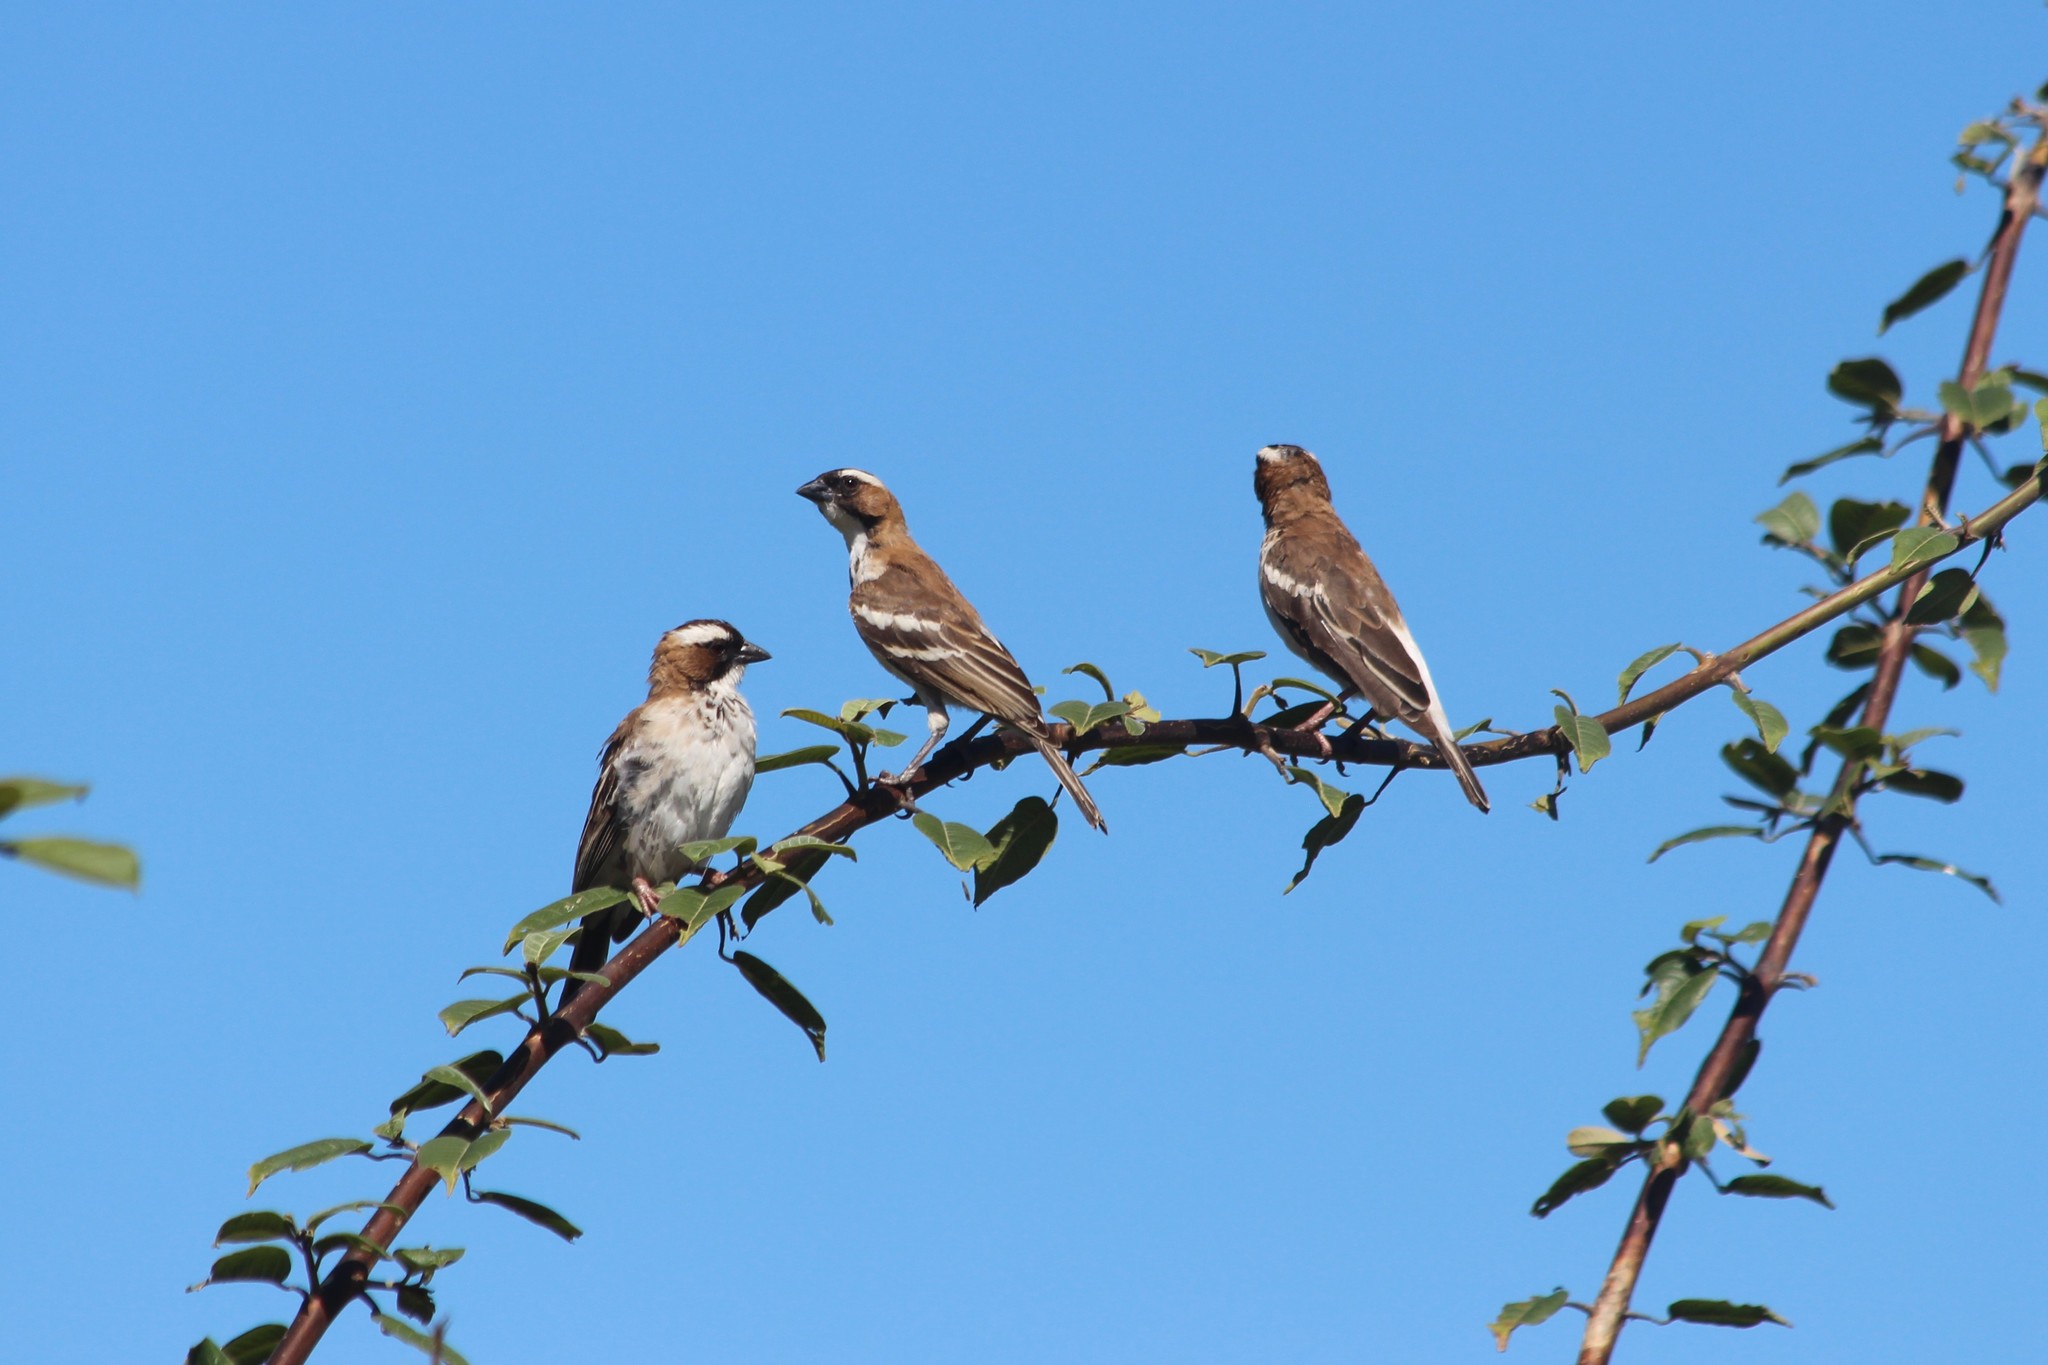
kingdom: Animalia
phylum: Chordata
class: Aves
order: Passeriformes
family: Passeridae
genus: Plocepasser
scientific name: Plocepasser mahali
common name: White-browed sparrow-weaver
